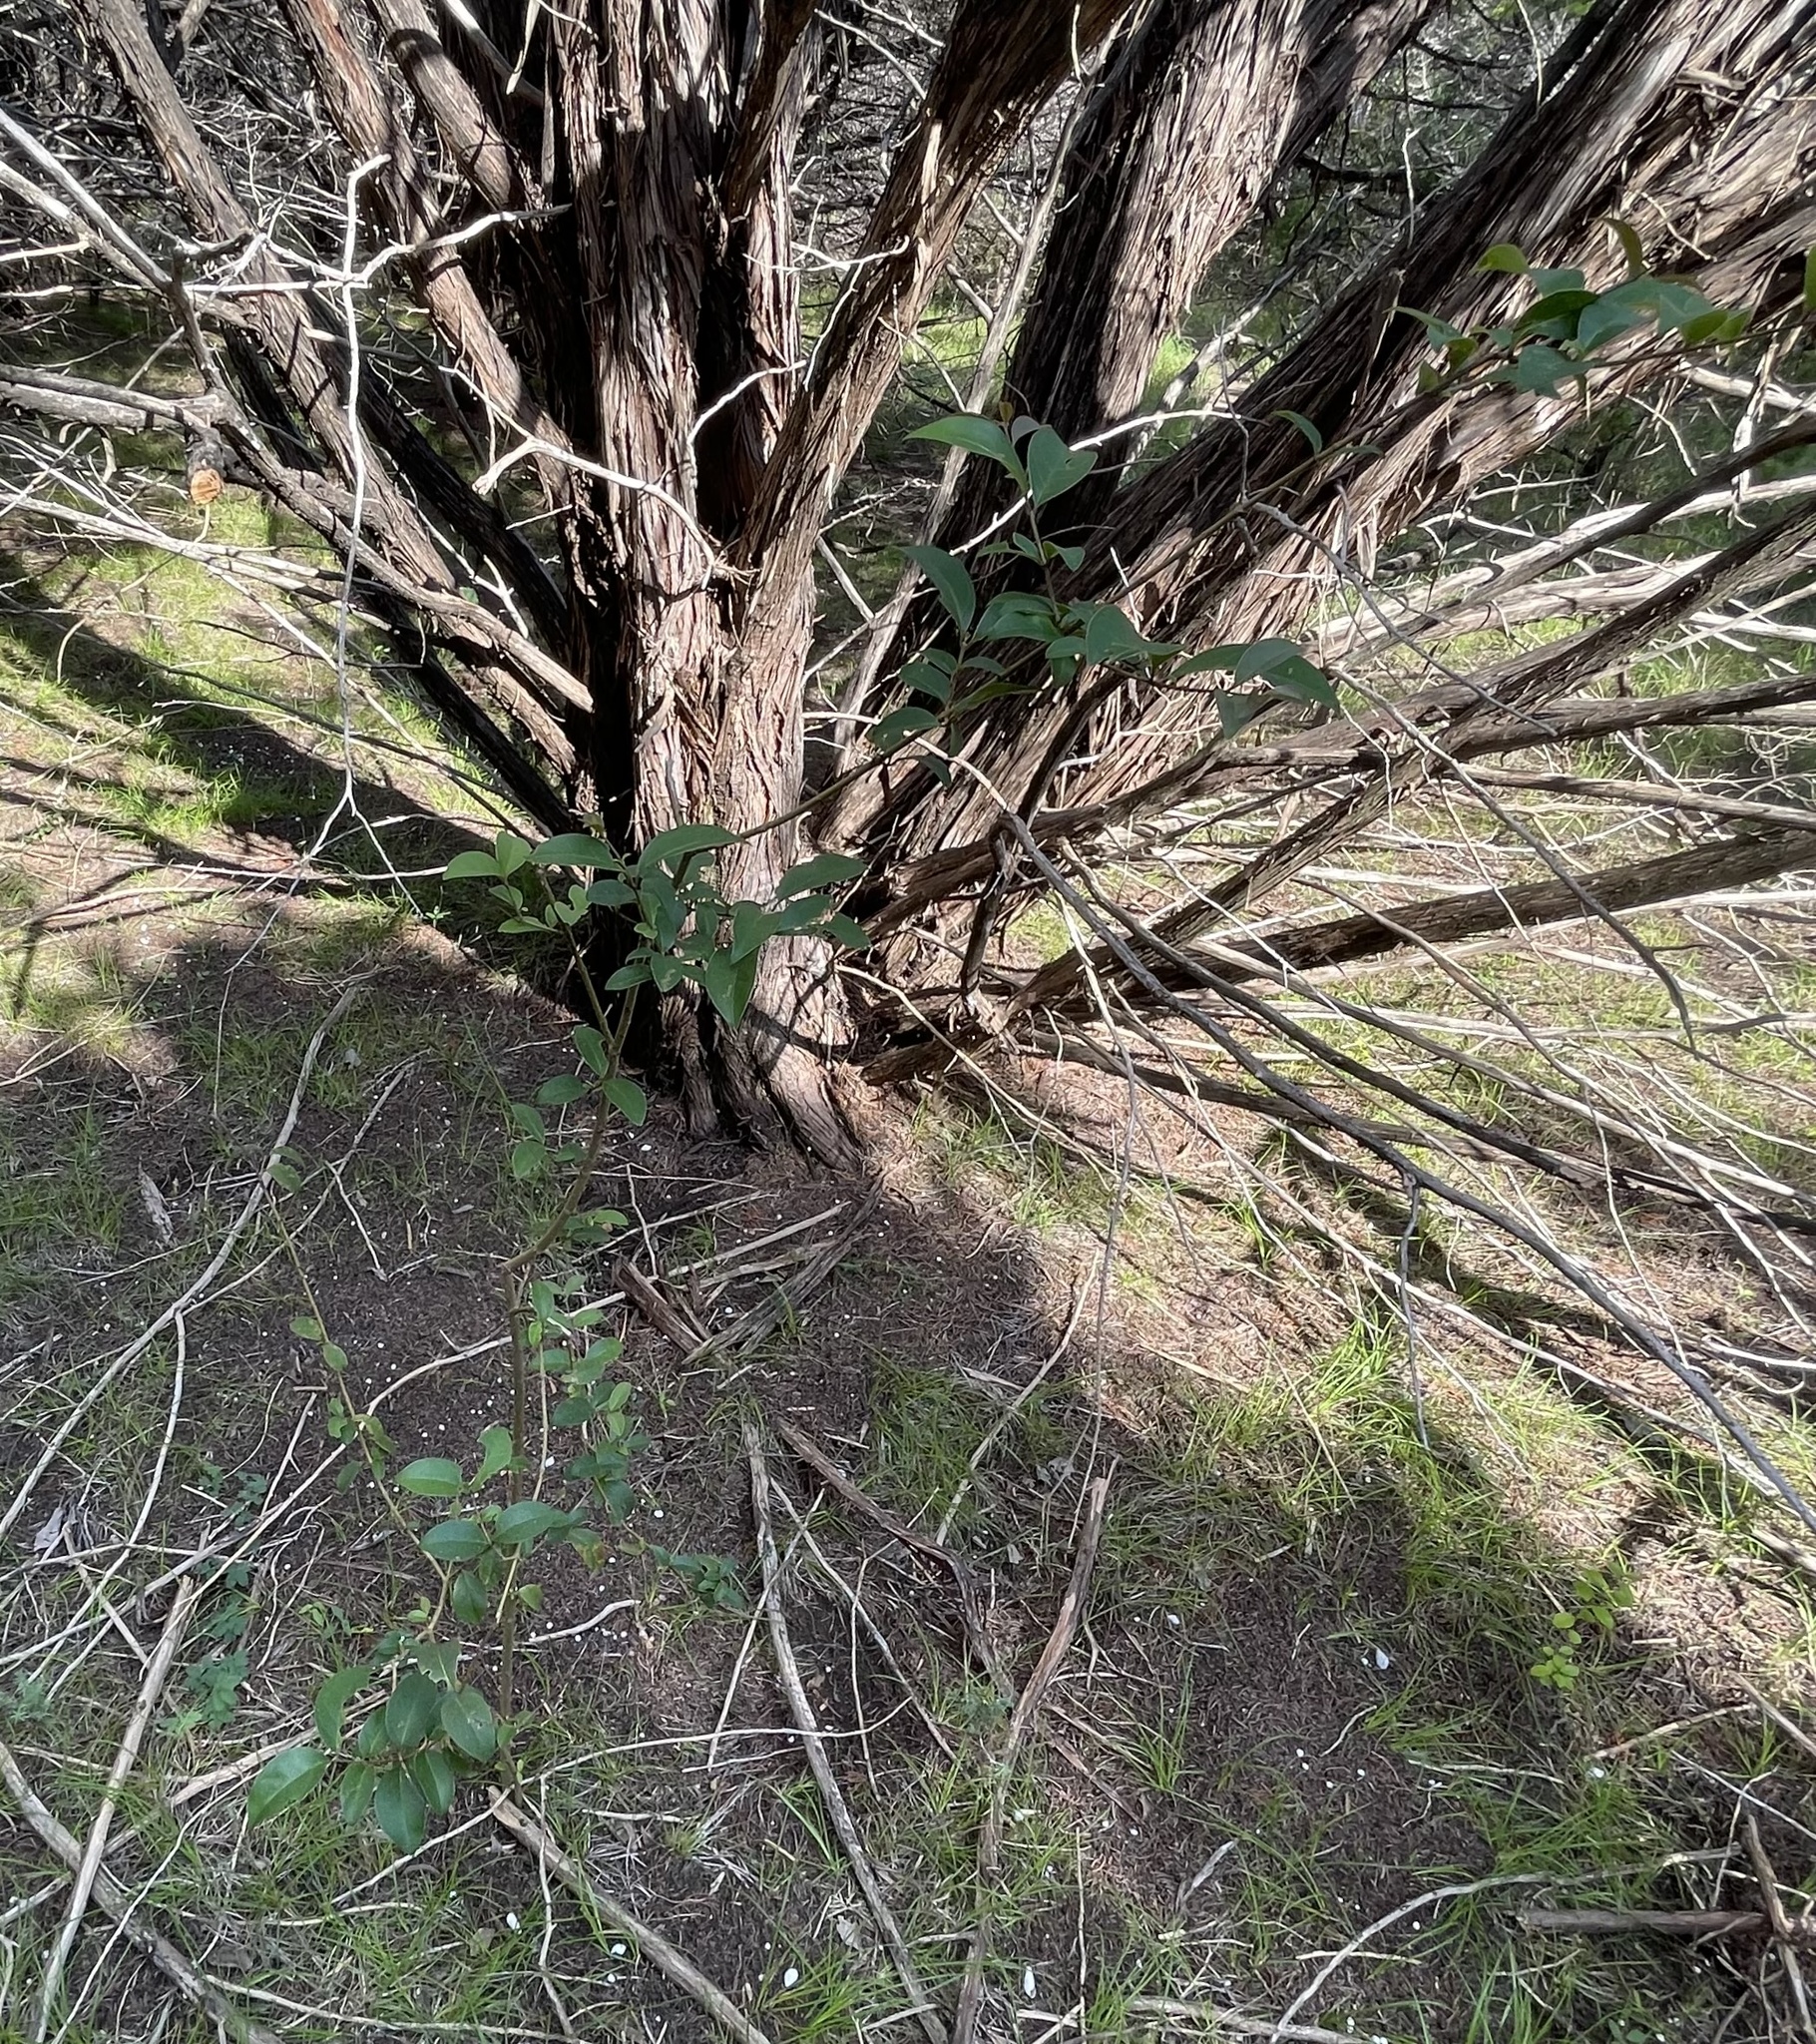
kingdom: Plantae
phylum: Tracheophyta
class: Magnoliopsida
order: Lamiales
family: Oleaceae
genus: Ligustrum
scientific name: Ligustrum lucidum
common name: Glossy privet
